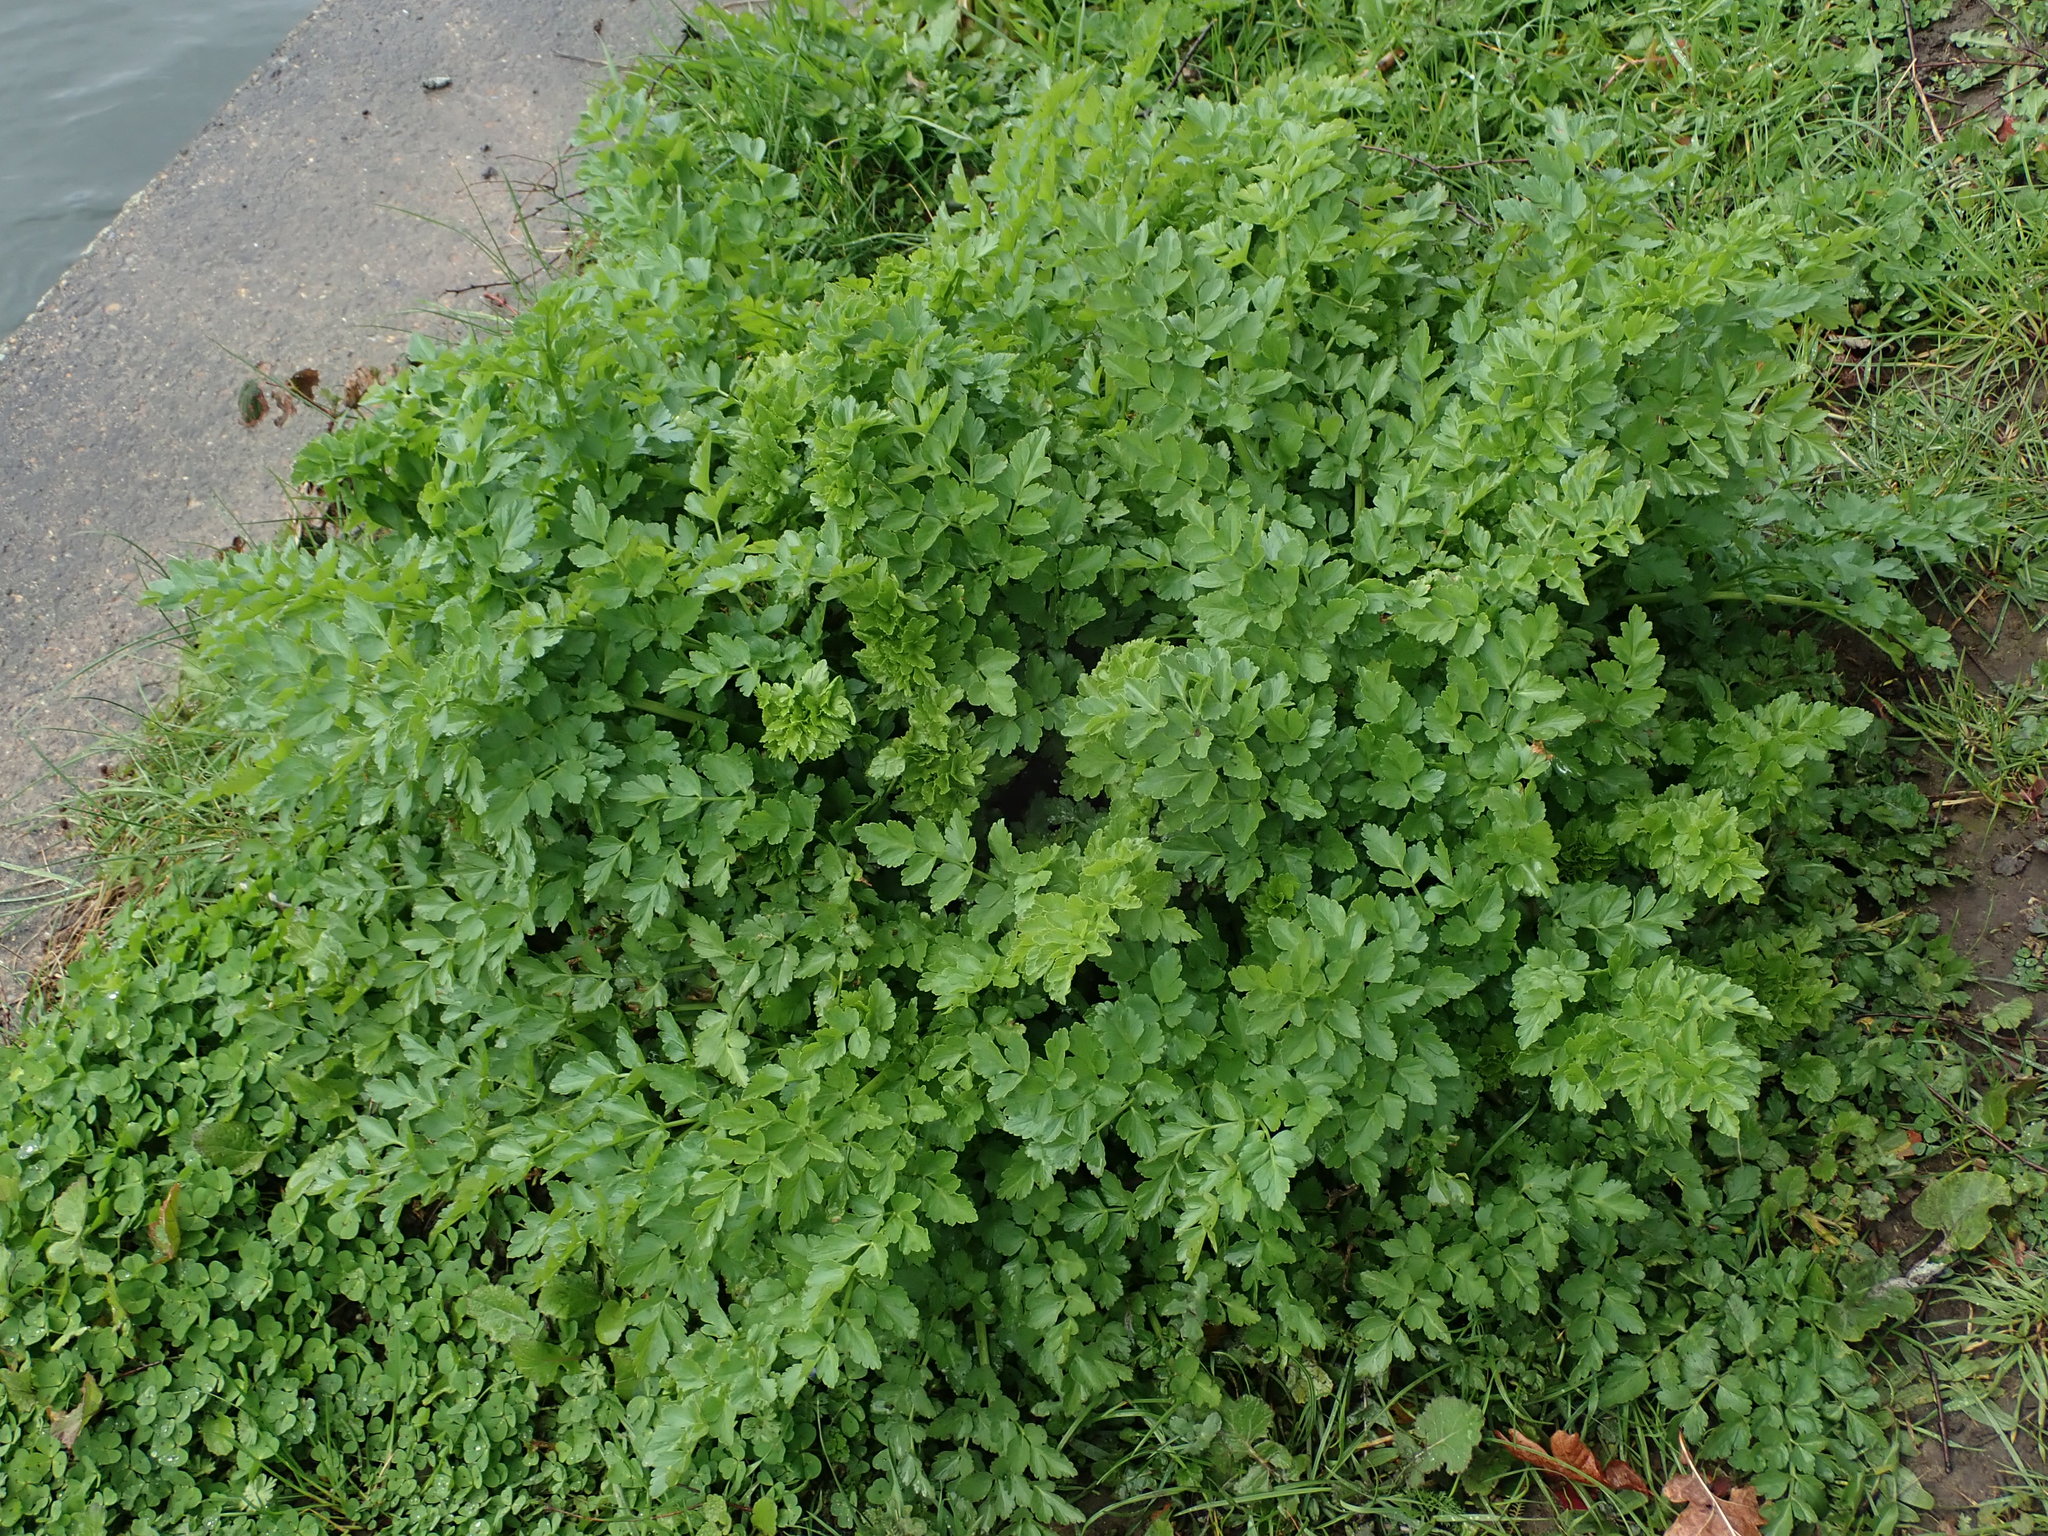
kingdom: Plantae
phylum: Tracheophyta
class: Magnoliopsida
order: Apiales
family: Apiaceae
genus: Oenanthe
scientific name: Oenanthe crocata
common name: Hemlock water-dropwort
